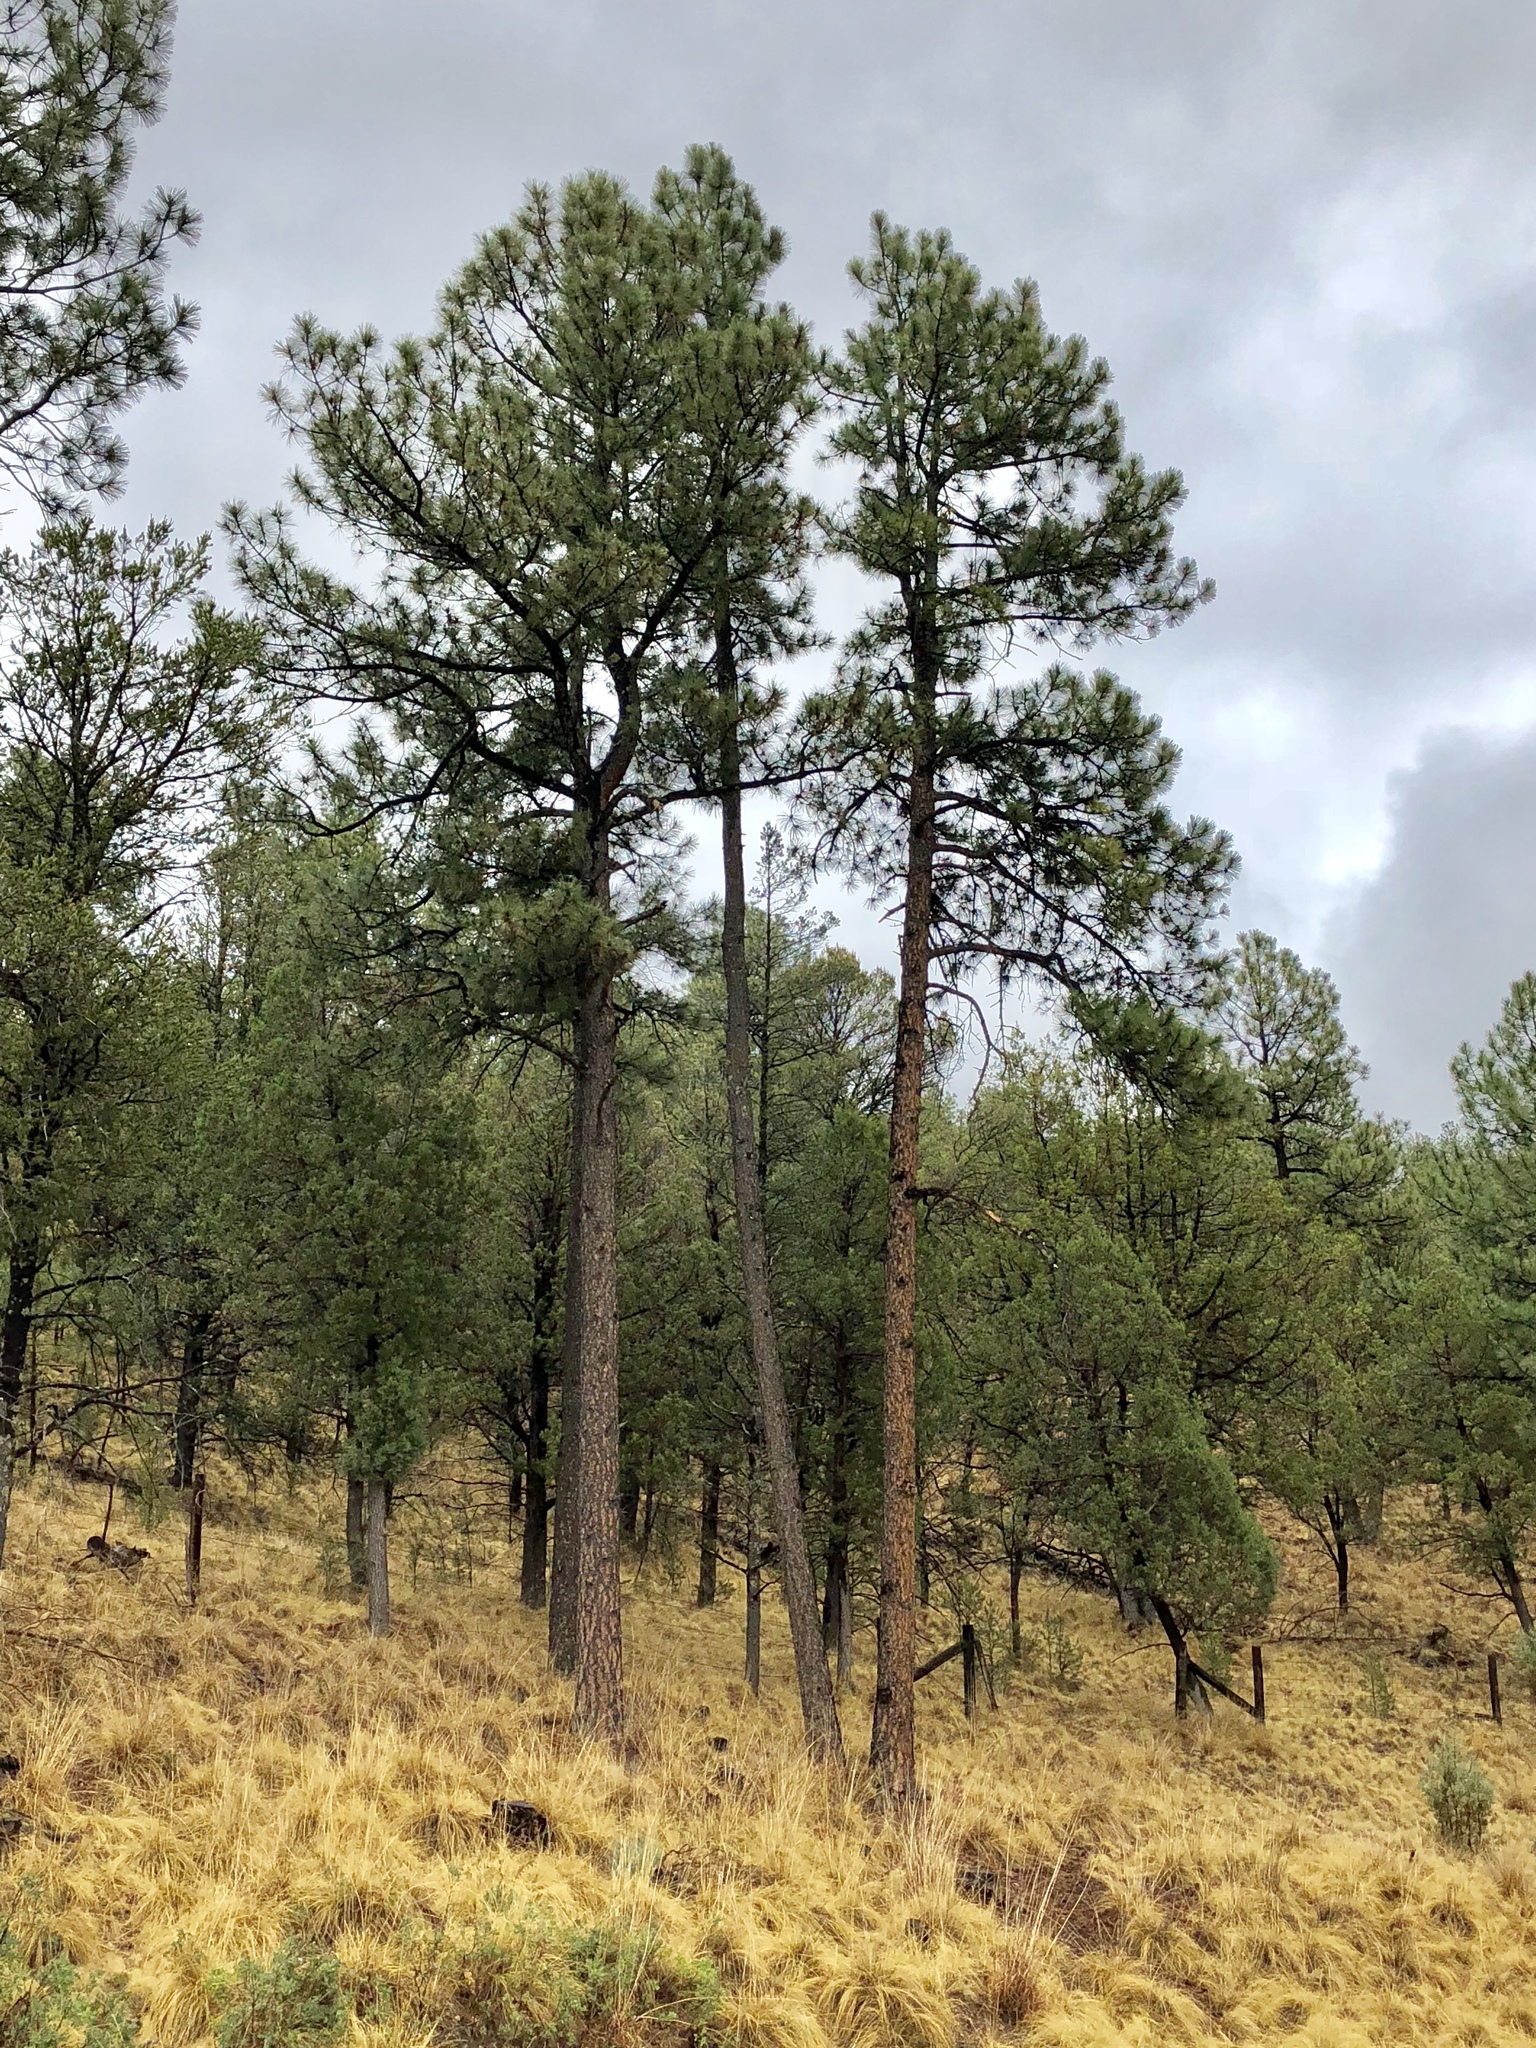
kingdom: Plantae
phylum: Tracheophyta
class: Pinopsida
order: Pinales
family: Pinaceae
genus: Pinus
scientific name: Pinus ponderosa
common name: Western yellow-pine
